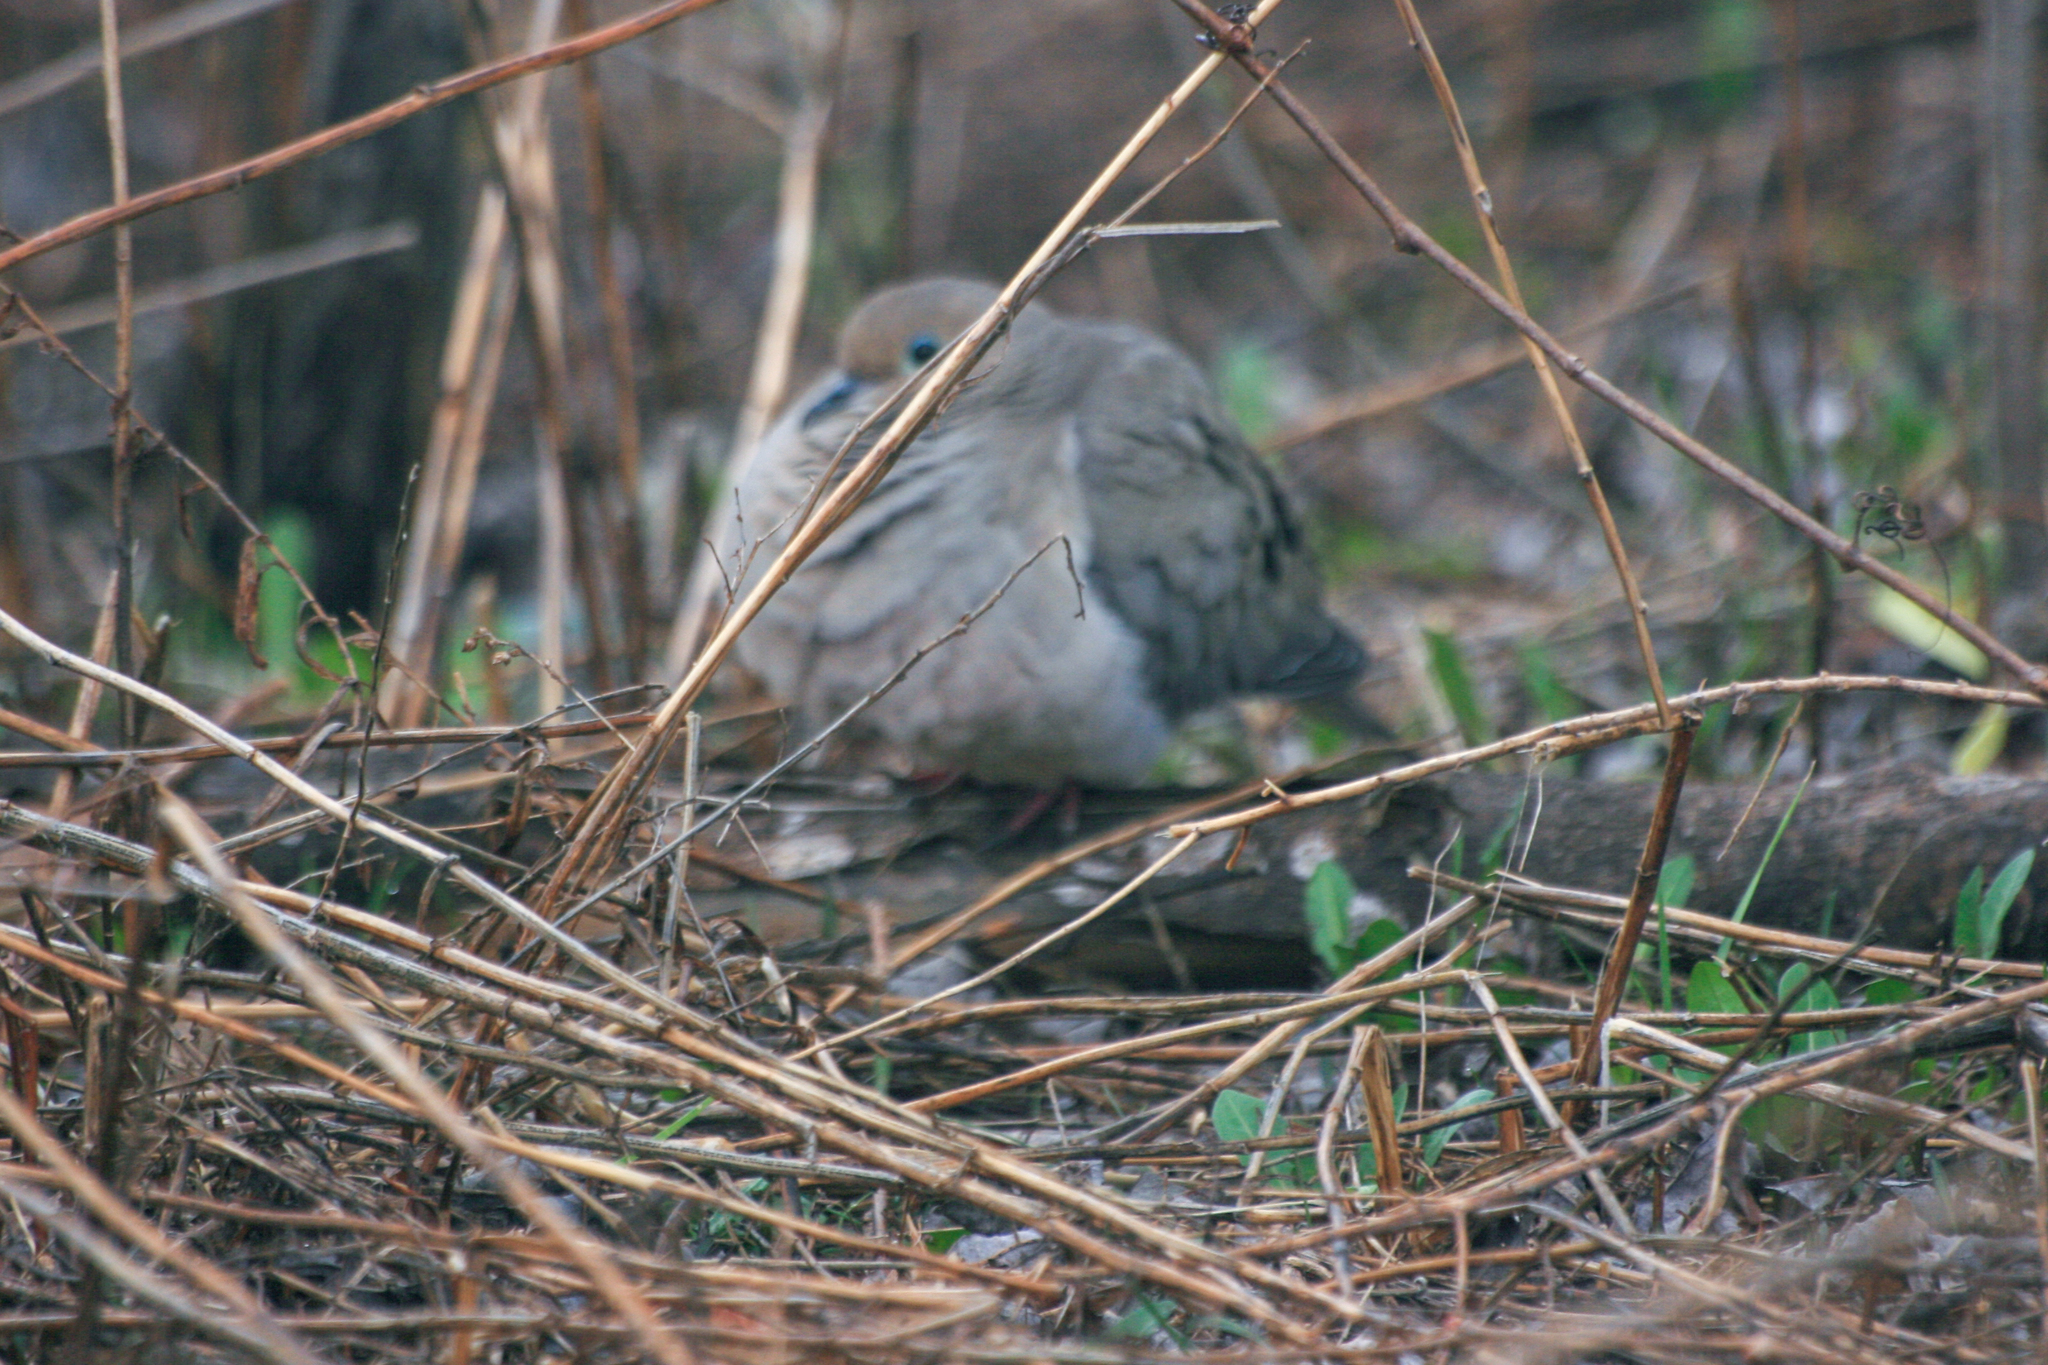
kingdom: Animalia
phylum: Chordata
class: Aves
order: Columbiformes
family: Columbidae
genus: Zenaida
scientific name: Zenaida macroura
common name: Mourning dove
